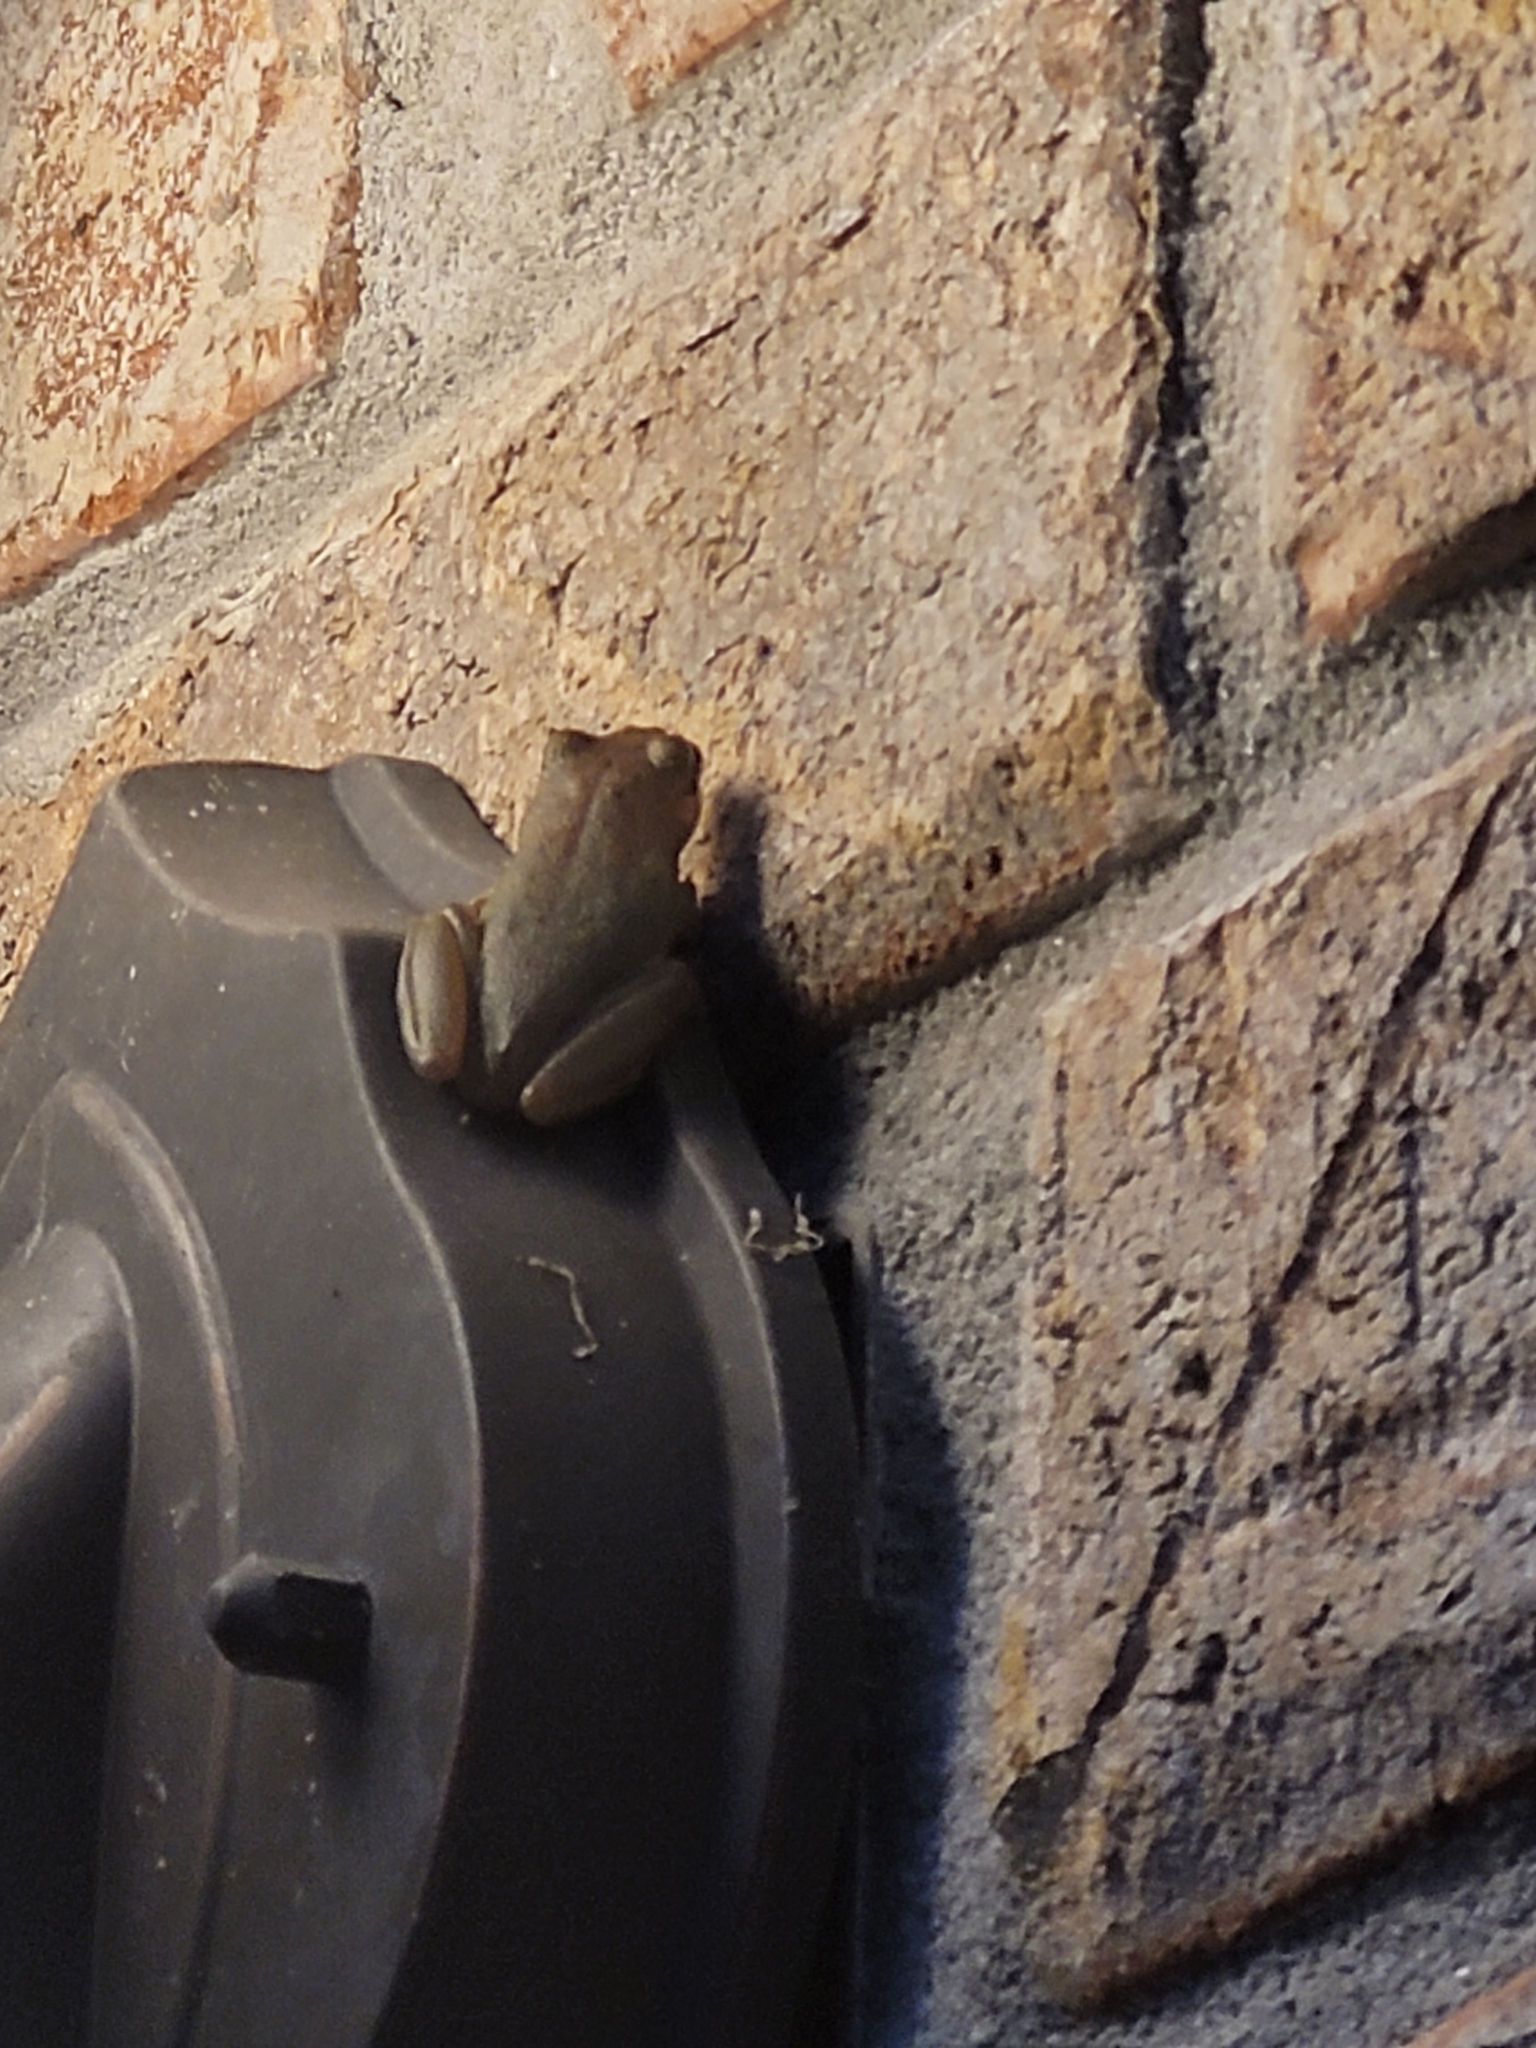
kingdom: Animalia
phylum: Chordata
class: Amphibia
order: Anura
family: Hylidae
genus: Dryophytes
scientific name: Dryophytes squirellus
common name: Squirrel treefrog
